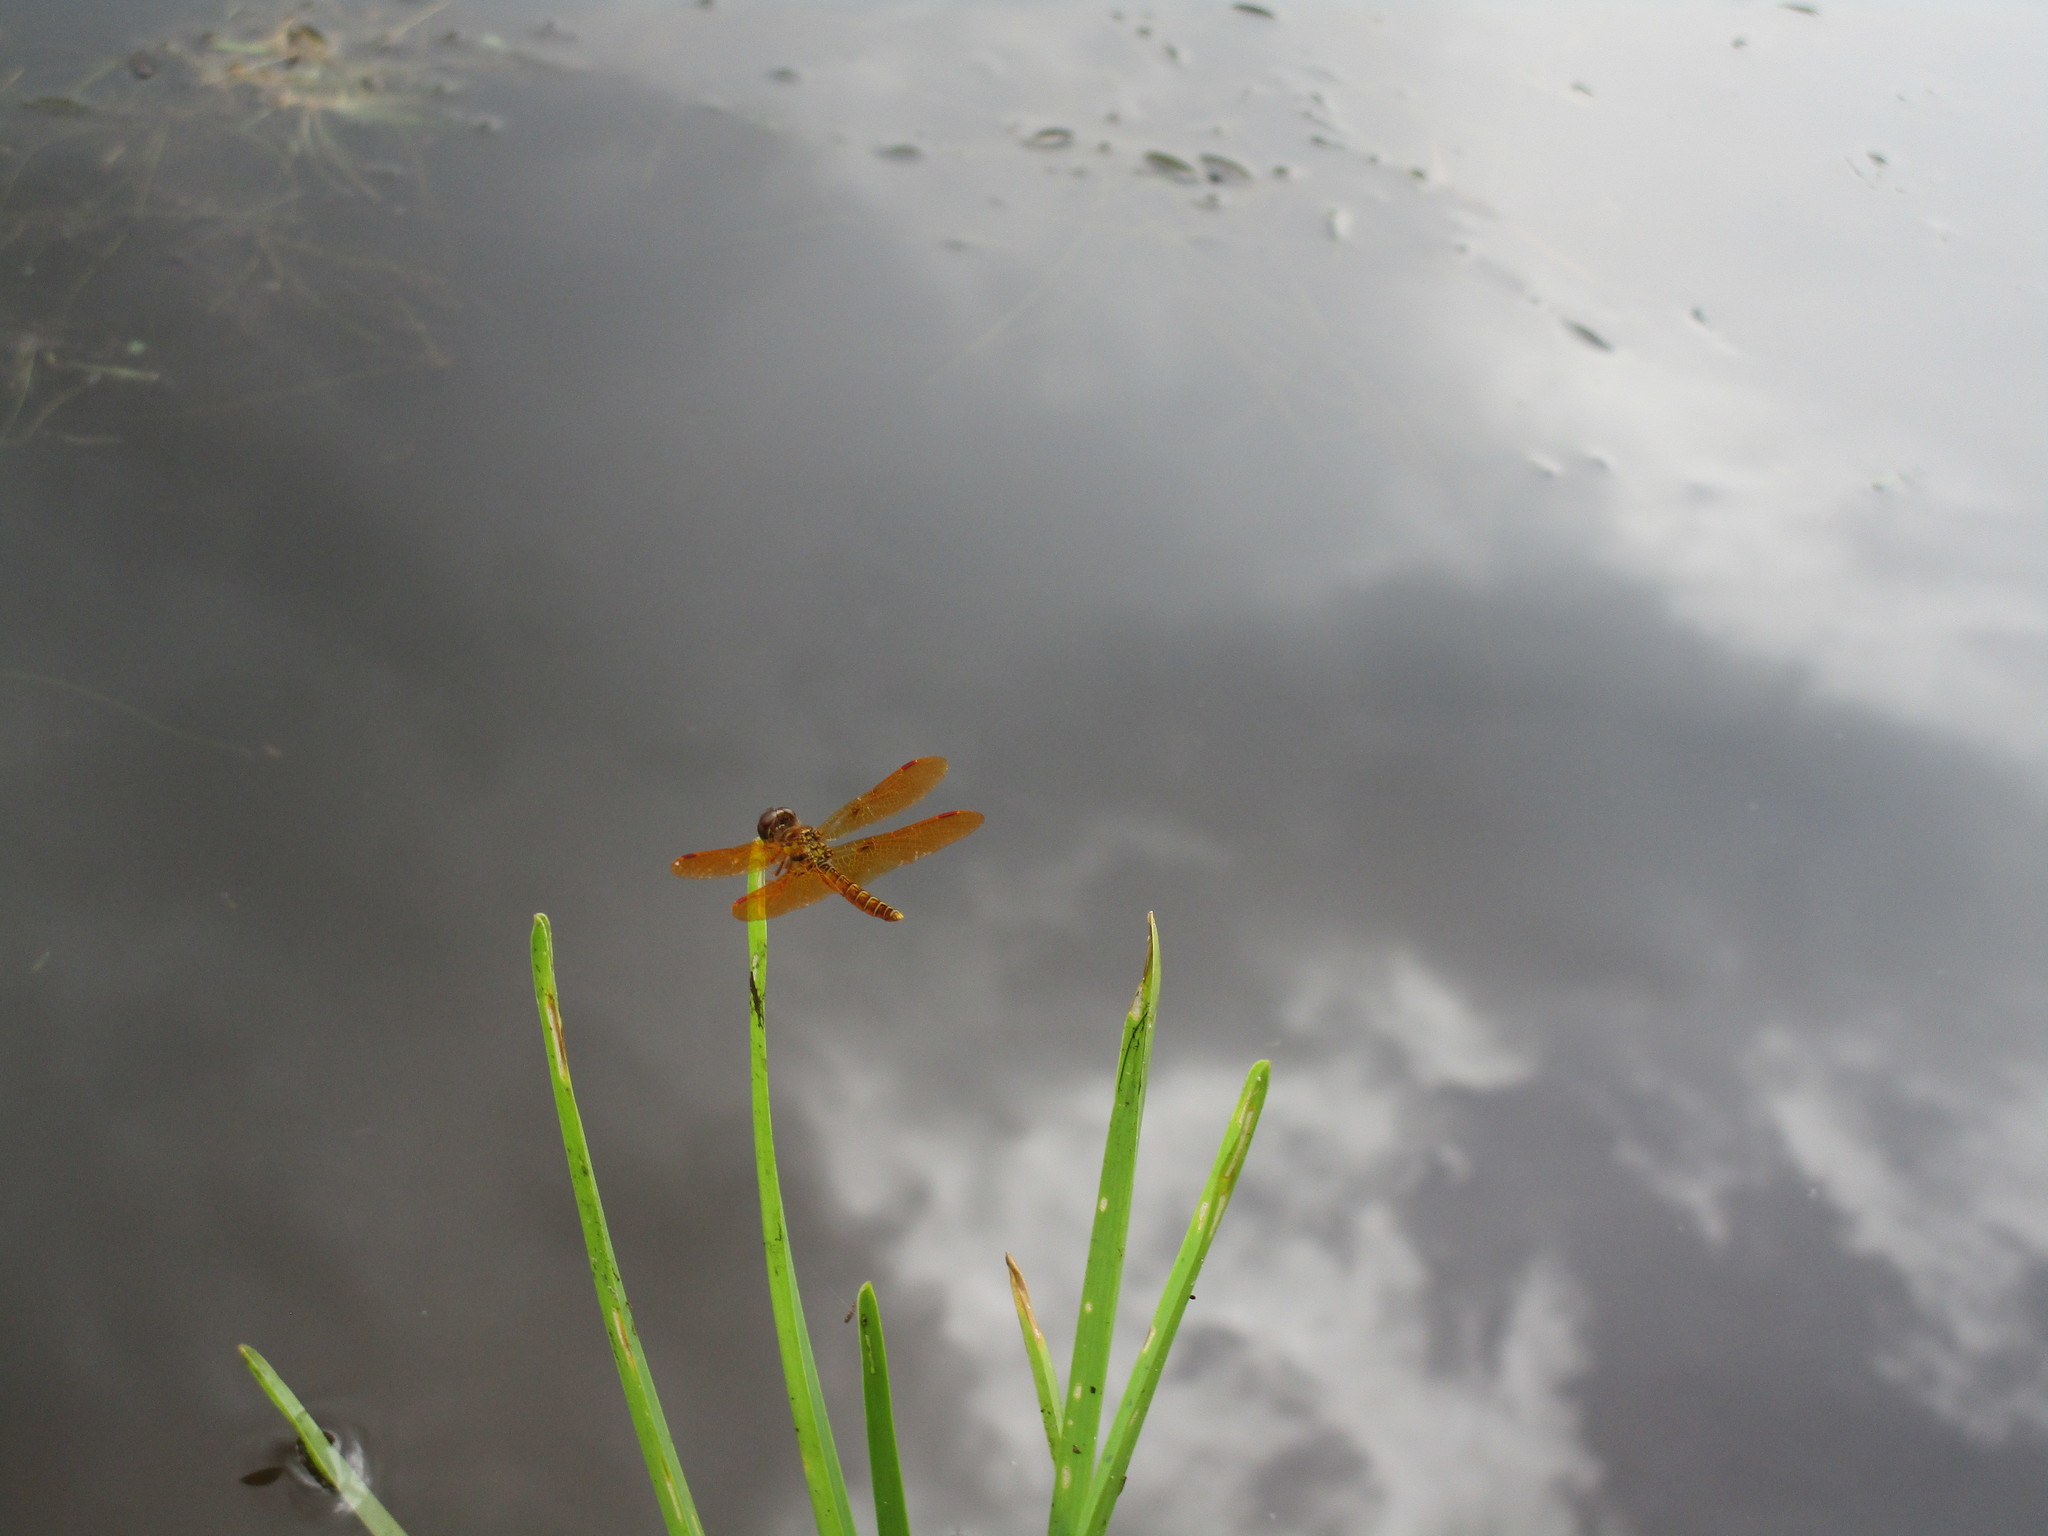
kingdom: Animalia
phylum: Arthropoda
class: Insecta
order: Odonata
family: Libellulidae
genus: Perithemis
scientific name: Perithemis tenera
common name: Eastern amberwing
